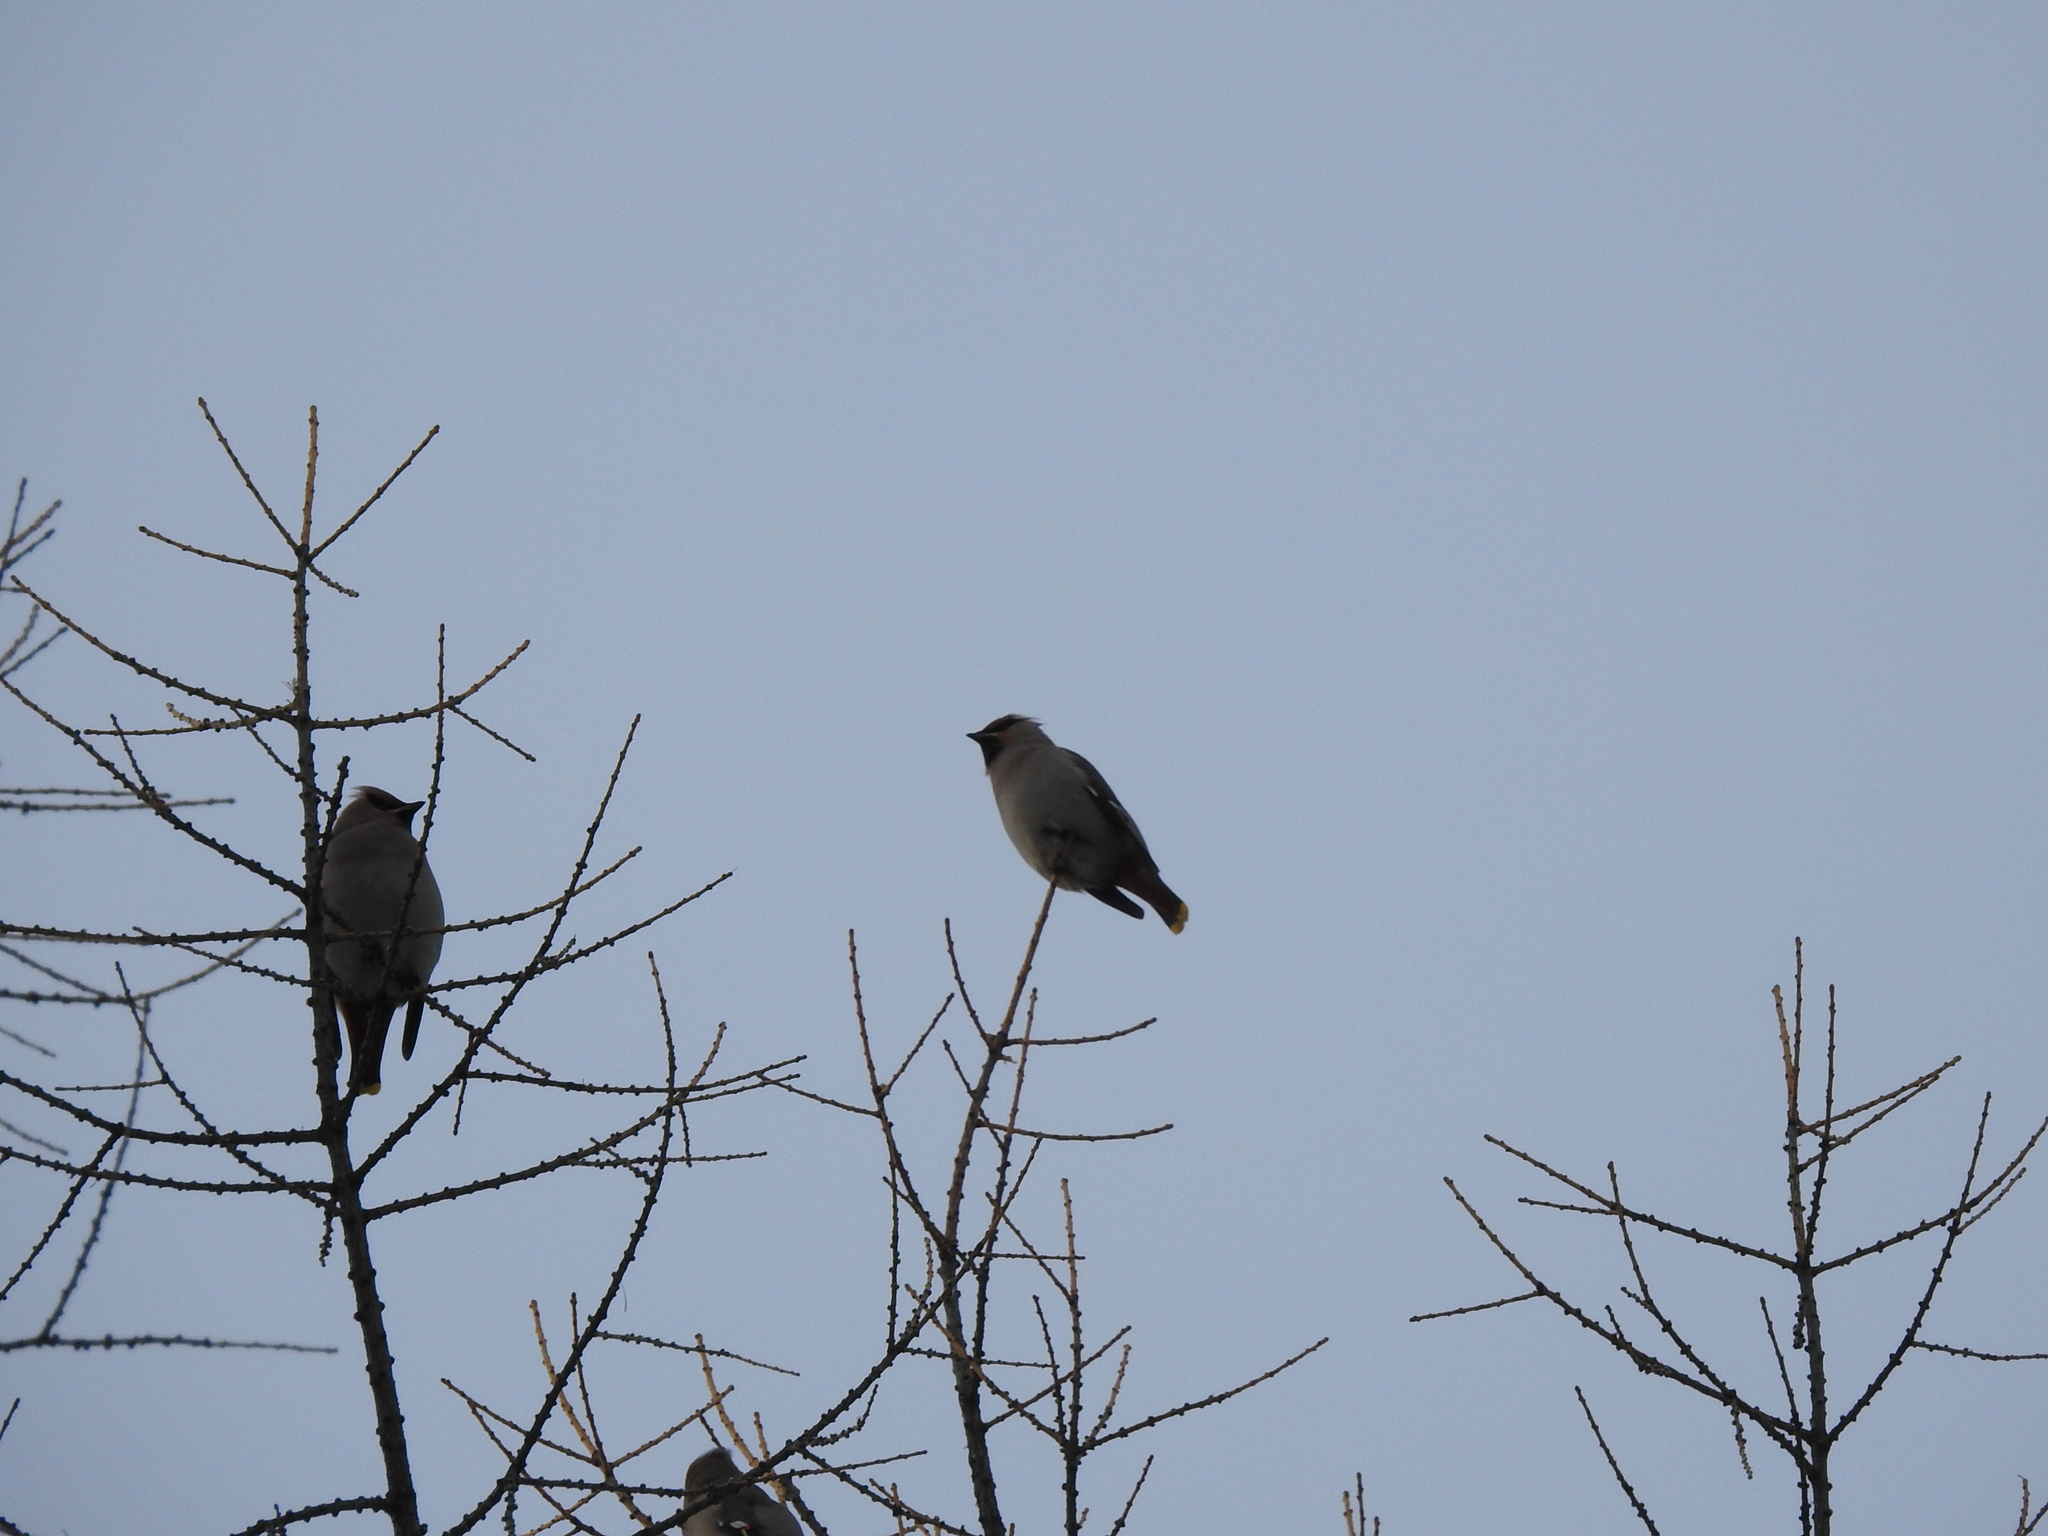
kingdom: Animalia
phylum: Chordata
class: Aves
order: Passeriformes
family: Bombycillidae
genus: Bombycilla
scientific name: Bombycilla garrulus
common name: Bohemian waxwing
